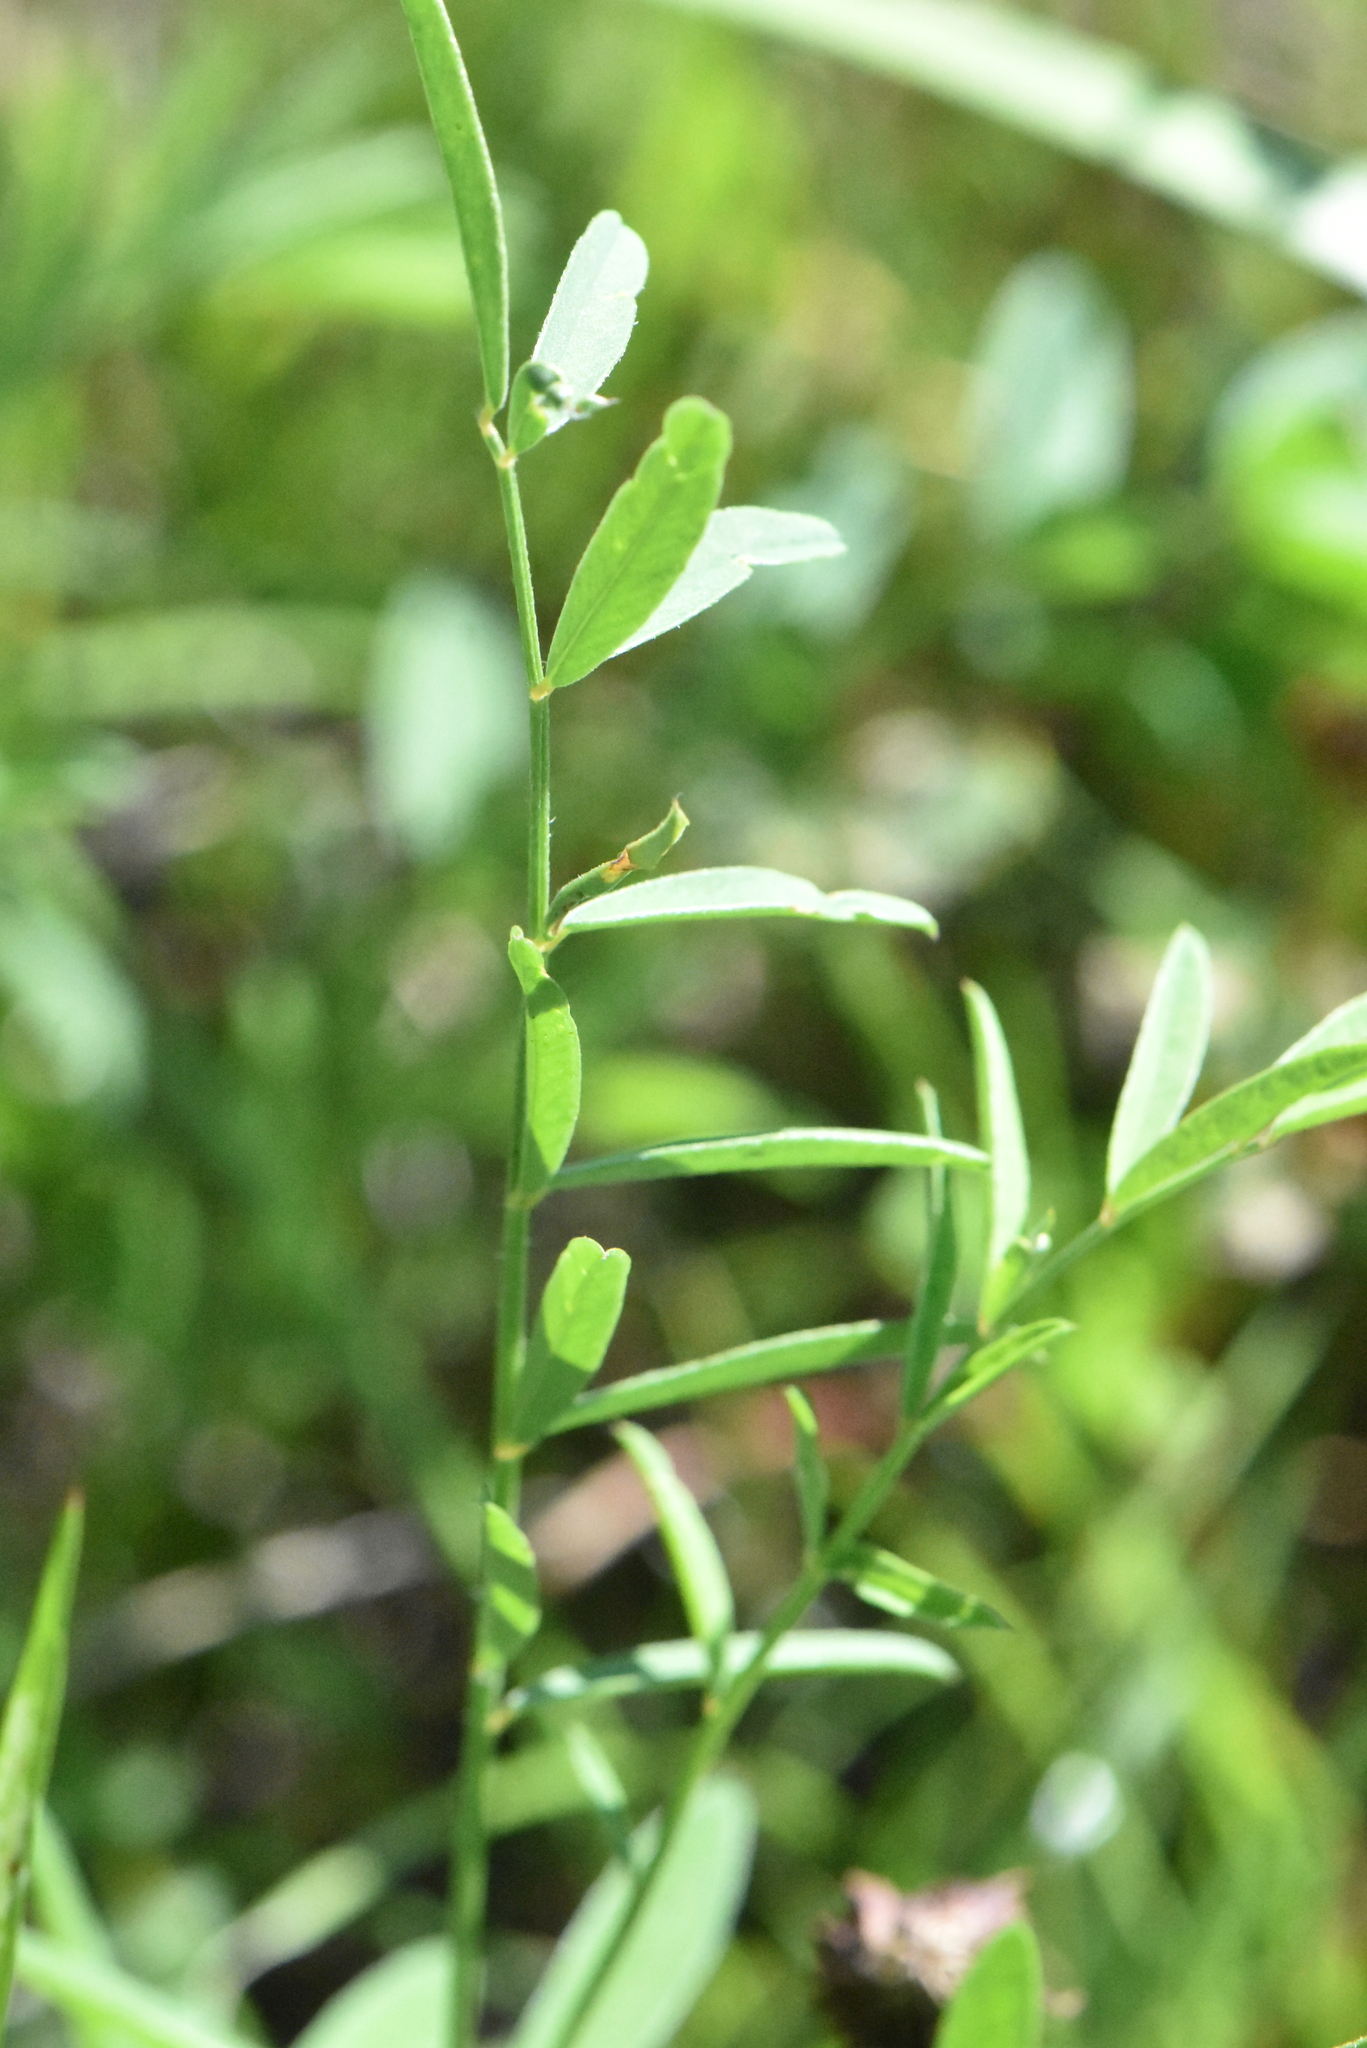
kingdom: Plantae
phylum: Tracheophyta
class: Magnoliopsida
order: Fabales
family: Fabaceae
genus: Onobrychis
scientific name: Onobrychis viciifolia
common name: Sainfoin
